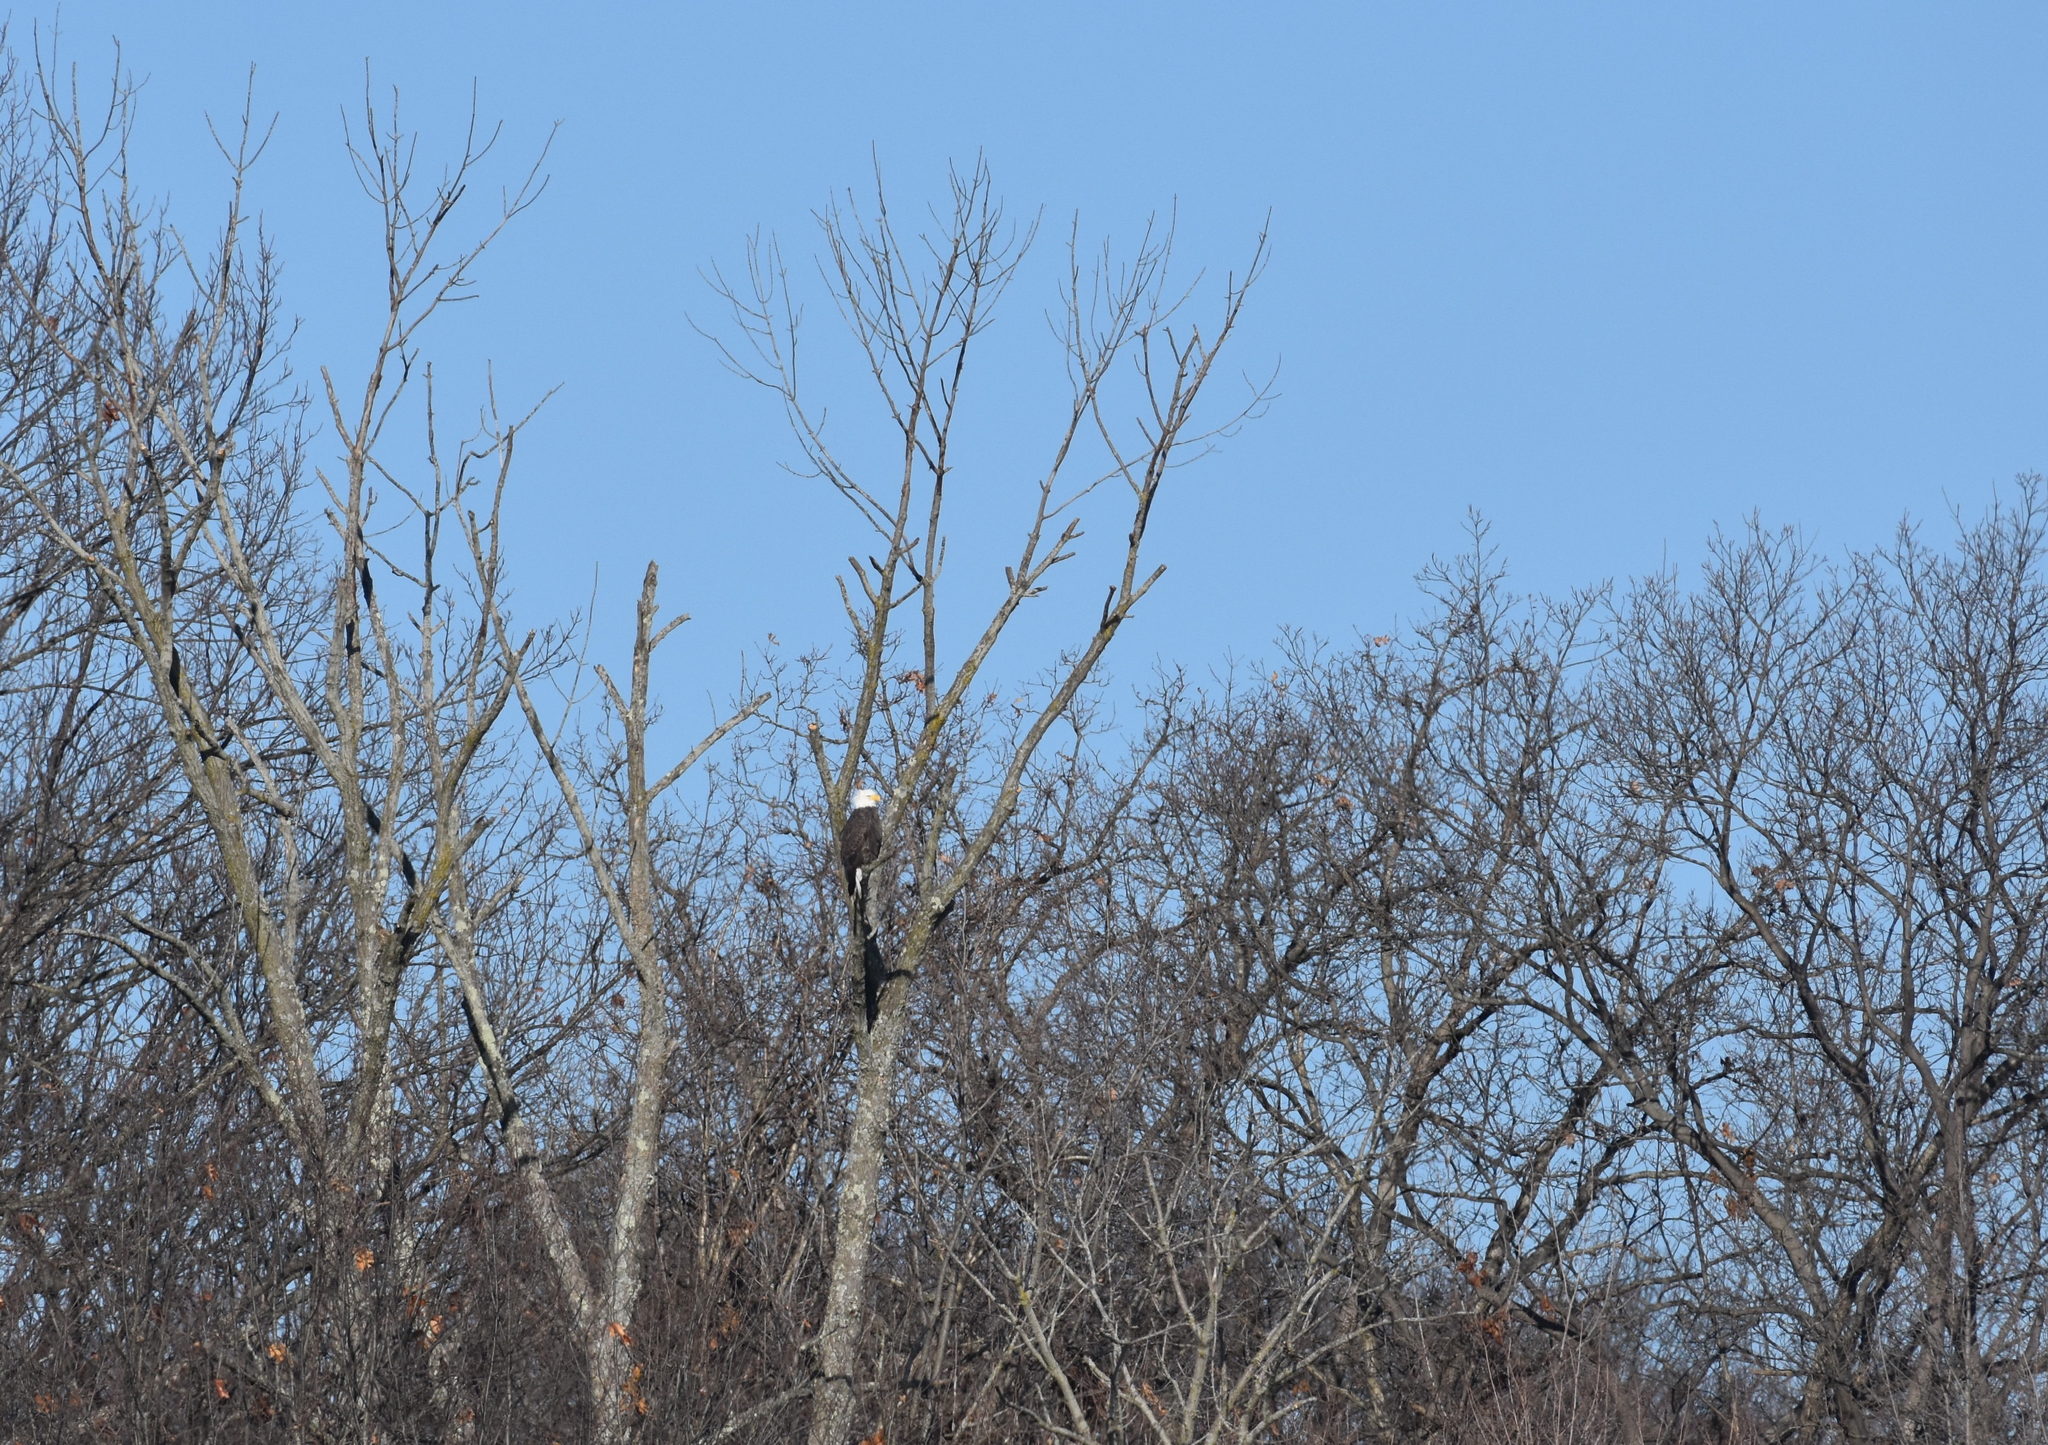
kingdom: Animalia
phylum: Chordata
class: Aves
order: Accipitriformes
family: Accipitridae
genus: Haliaeetus
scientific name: Haliaeetus leucocephalus
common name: Bald eagle
